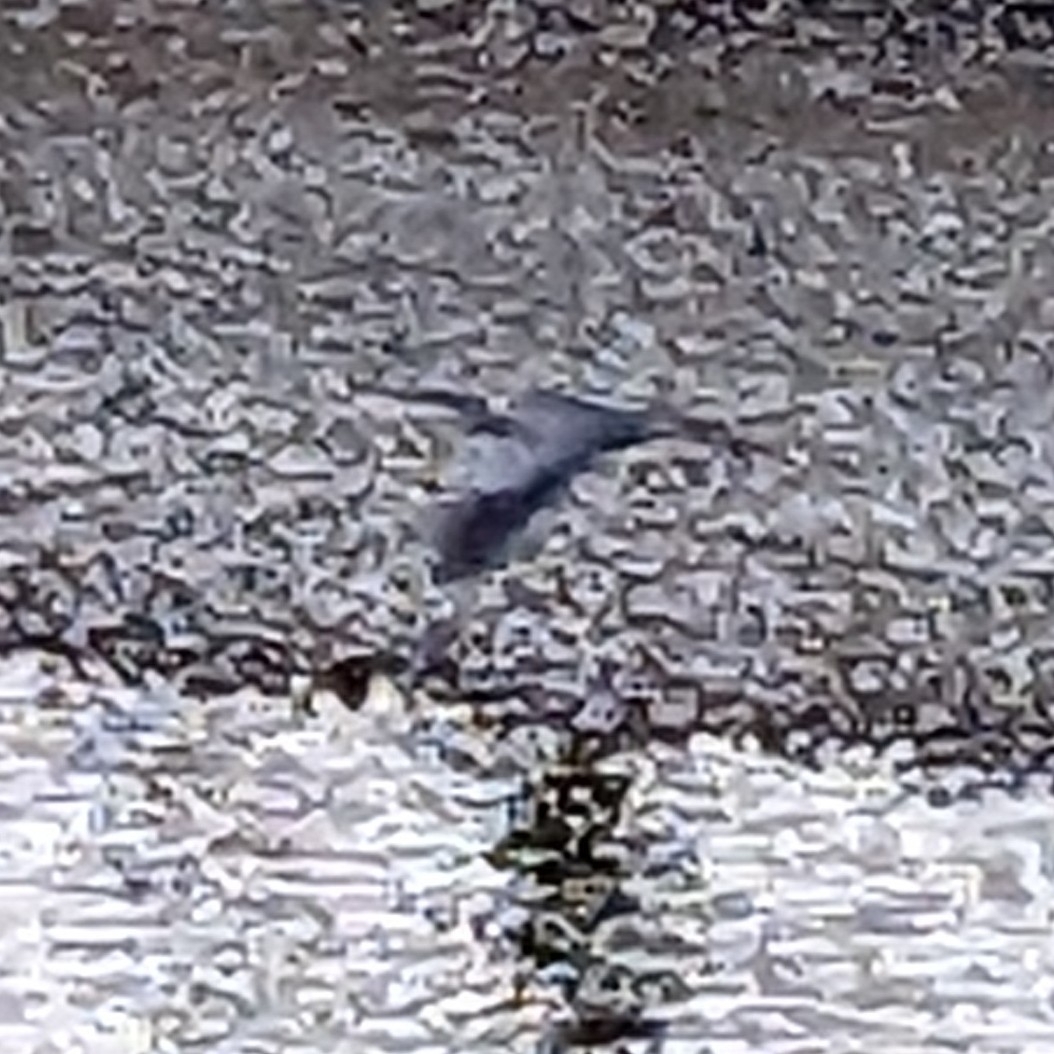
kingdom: Animalia
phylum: Chordata
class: Aves
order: Pelecaniformes
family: Ardeidae
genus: Ardea
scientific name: Ardea herodias
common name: Great blue heron
